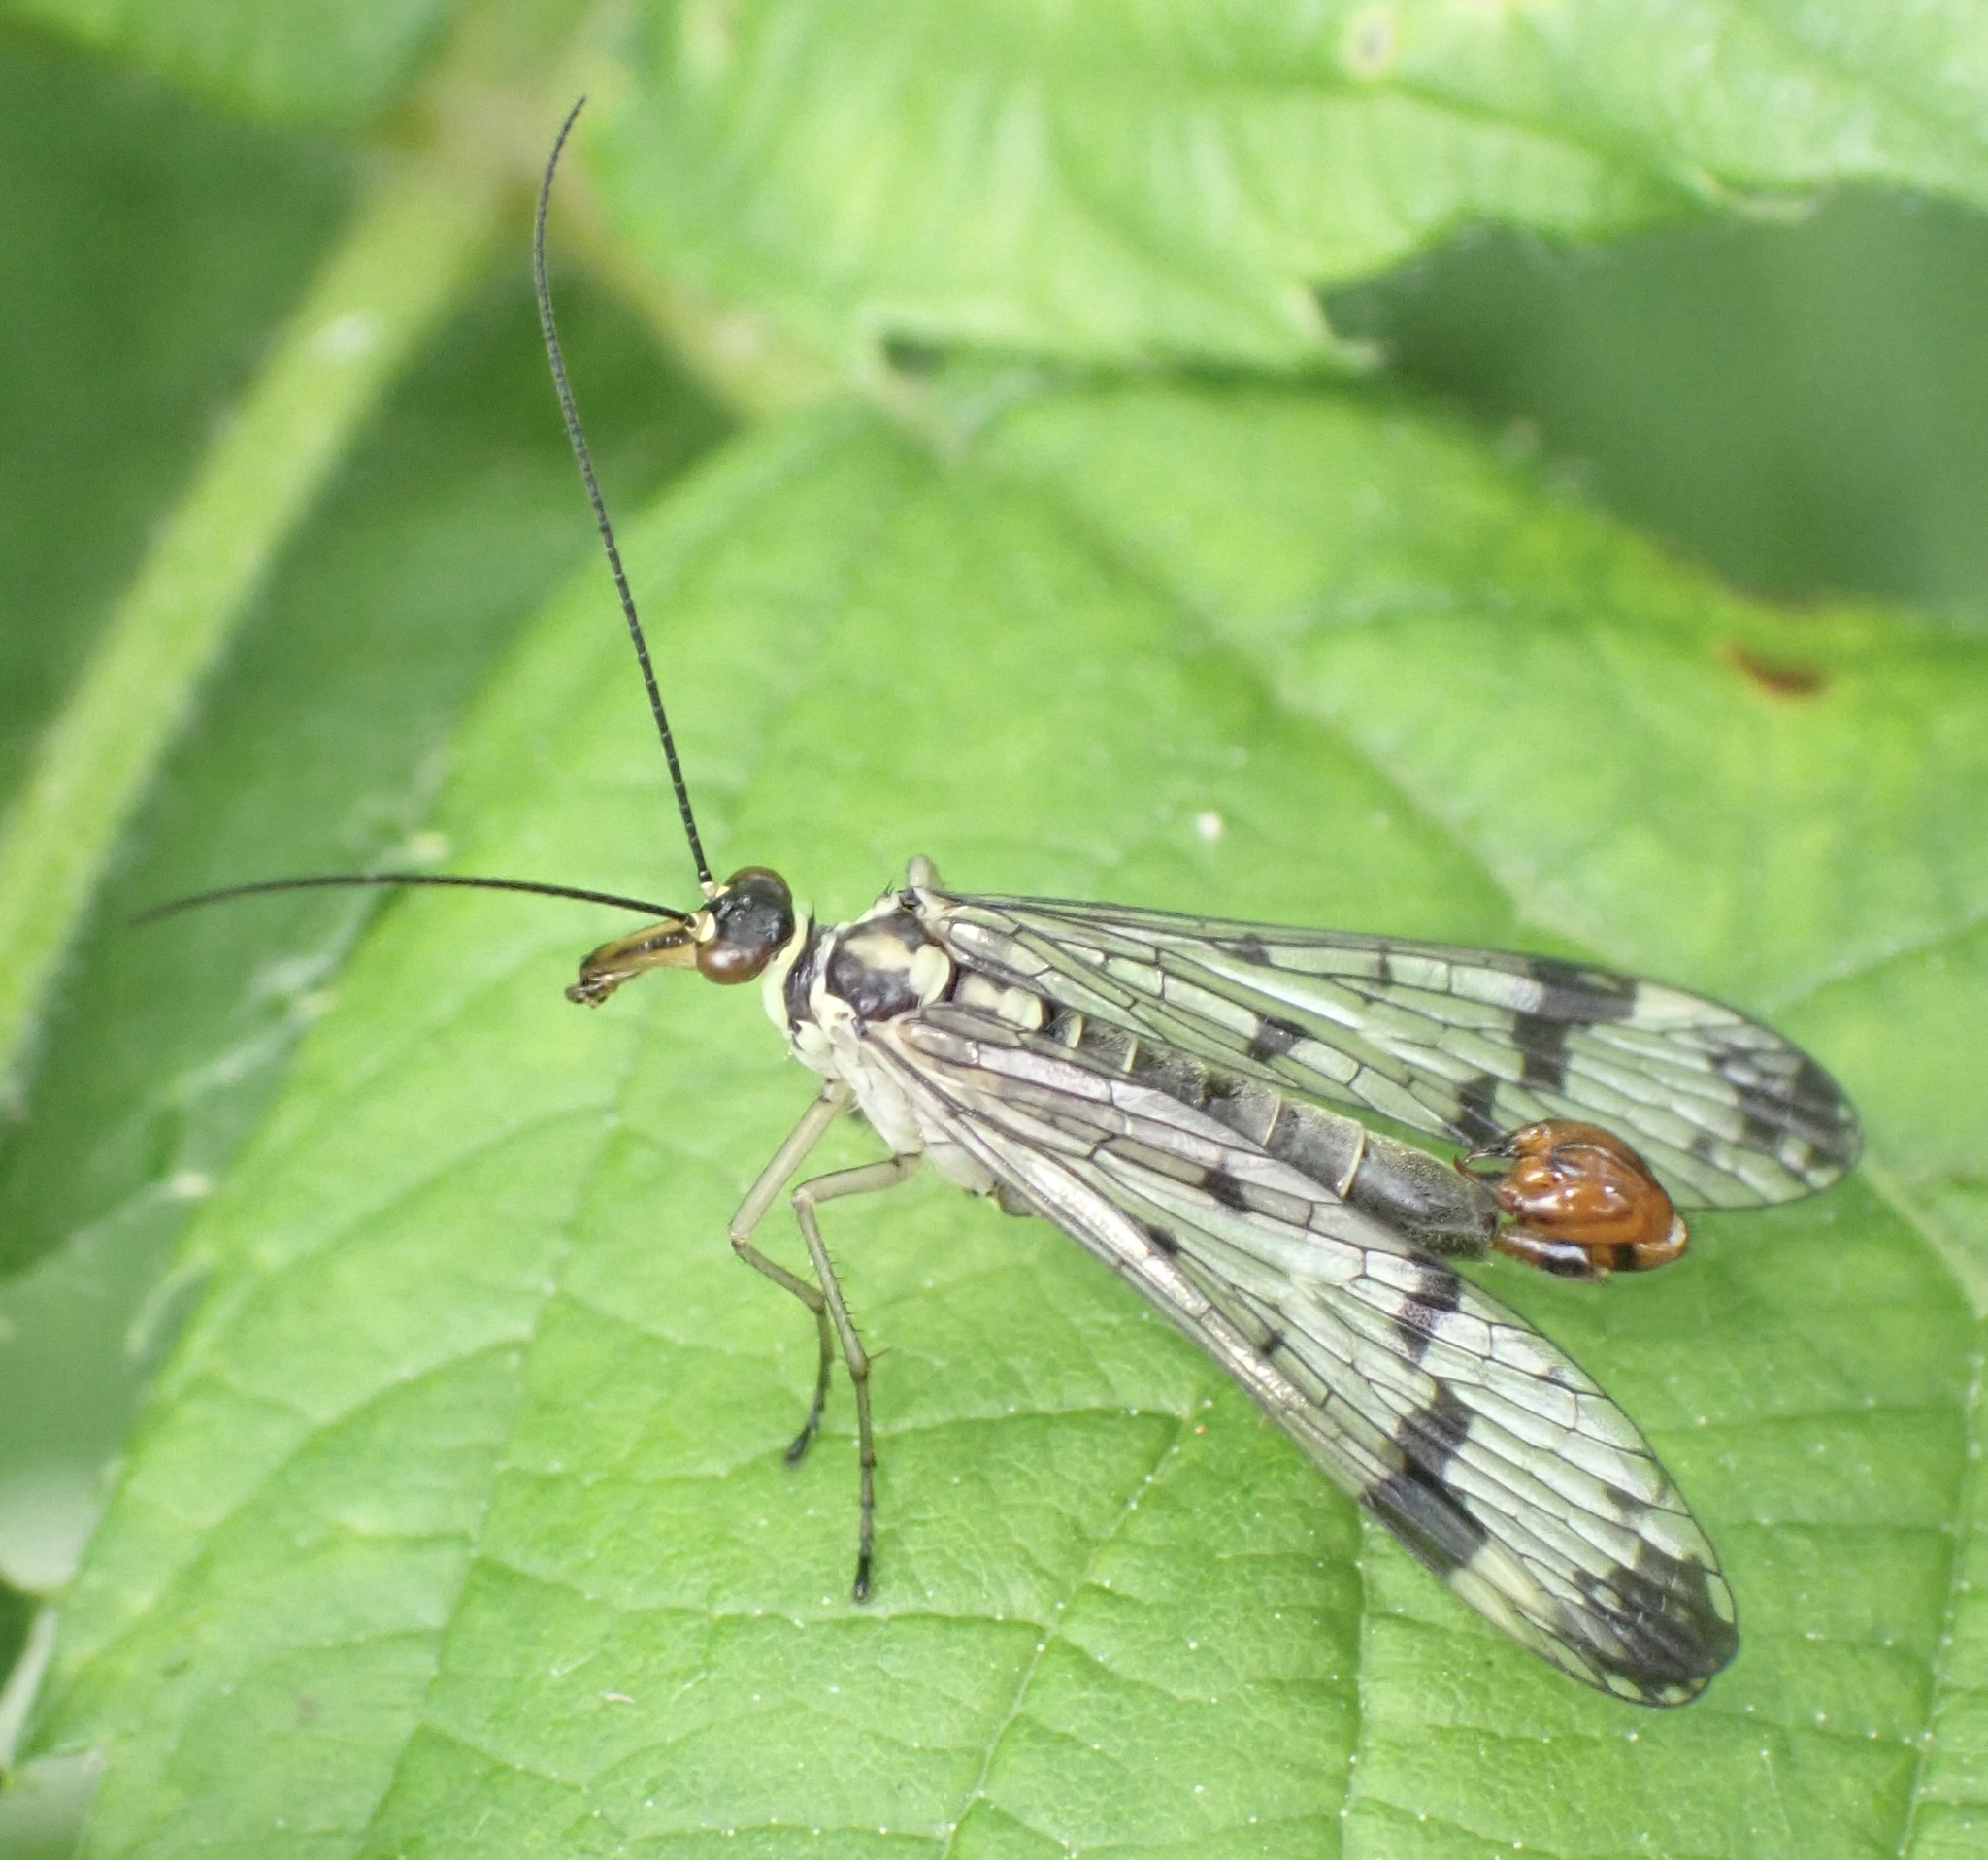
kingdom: Animalia
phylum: Arthropoda
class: Insecta
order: Mecoptera
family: Panorpidae
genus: Panorpa
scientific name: Panorpa communis
